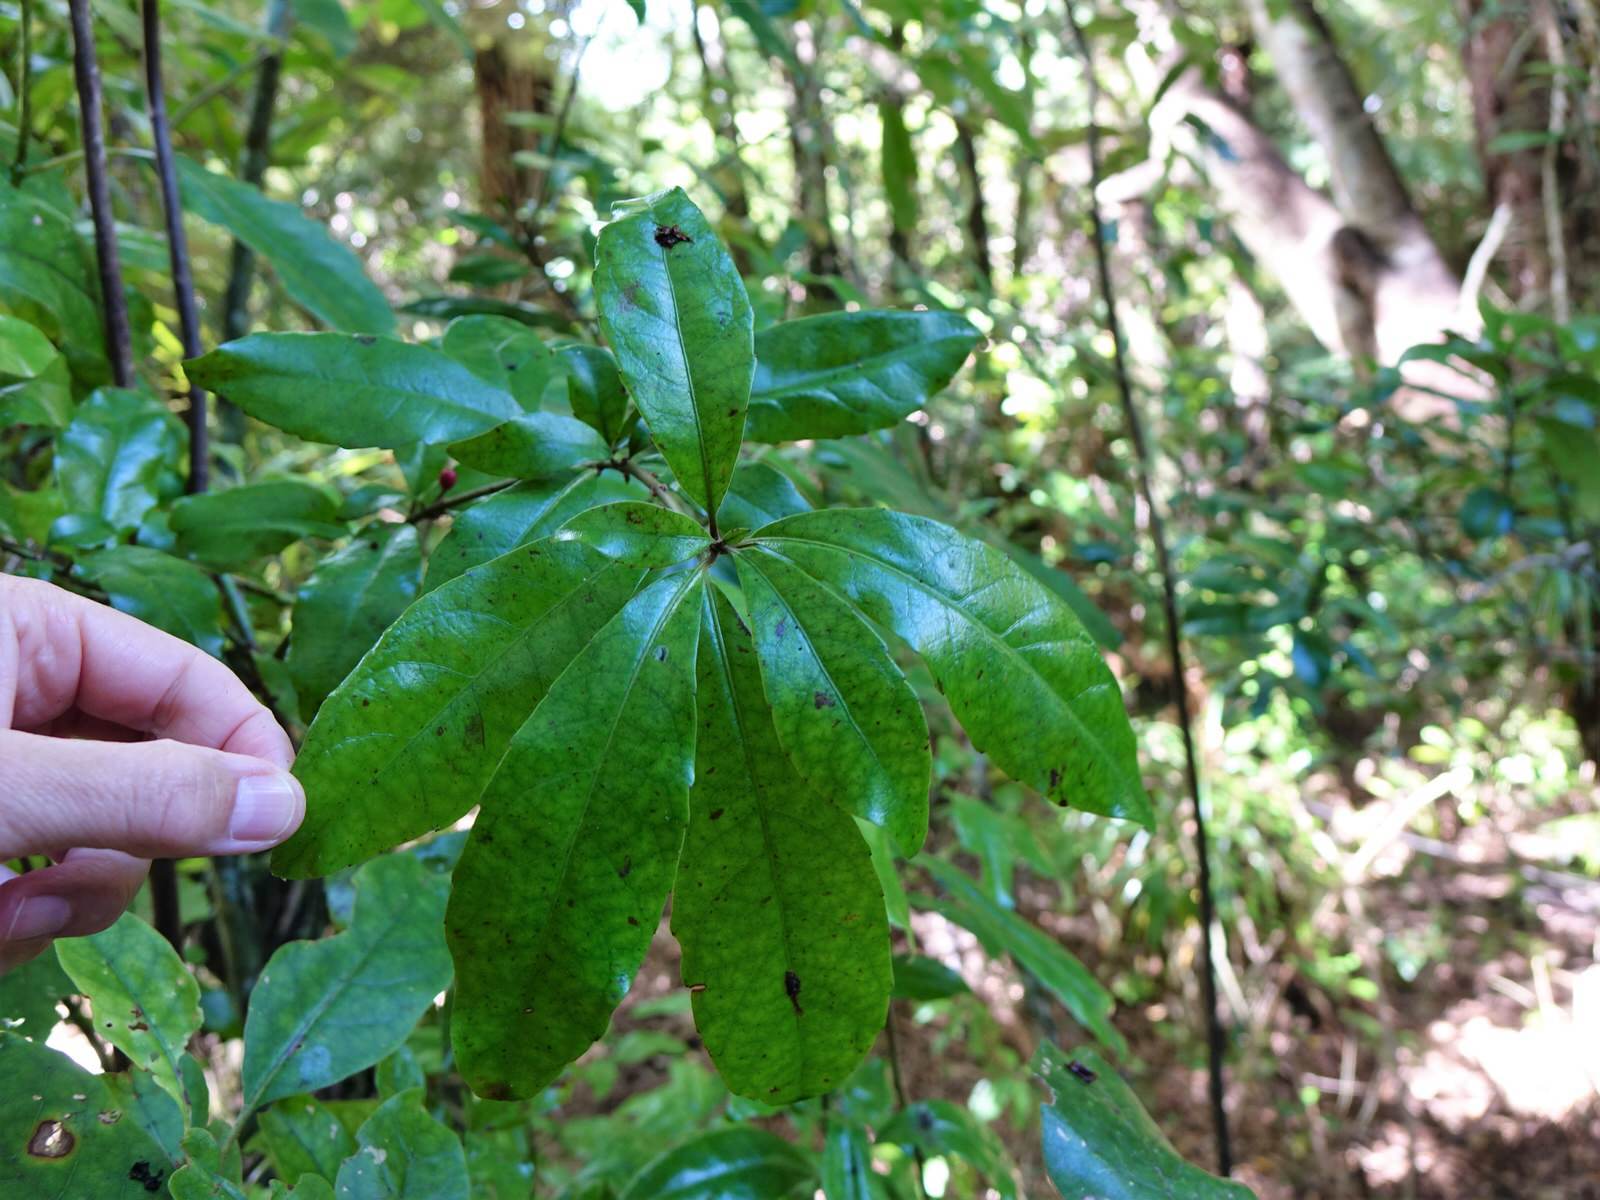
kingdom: Plantae
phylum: Tracheophyta
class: Magnoliopsida
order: Asterales
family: Alseuosmiaceae
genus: Alseuosmia
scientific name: Alseuosmia macrophylla
